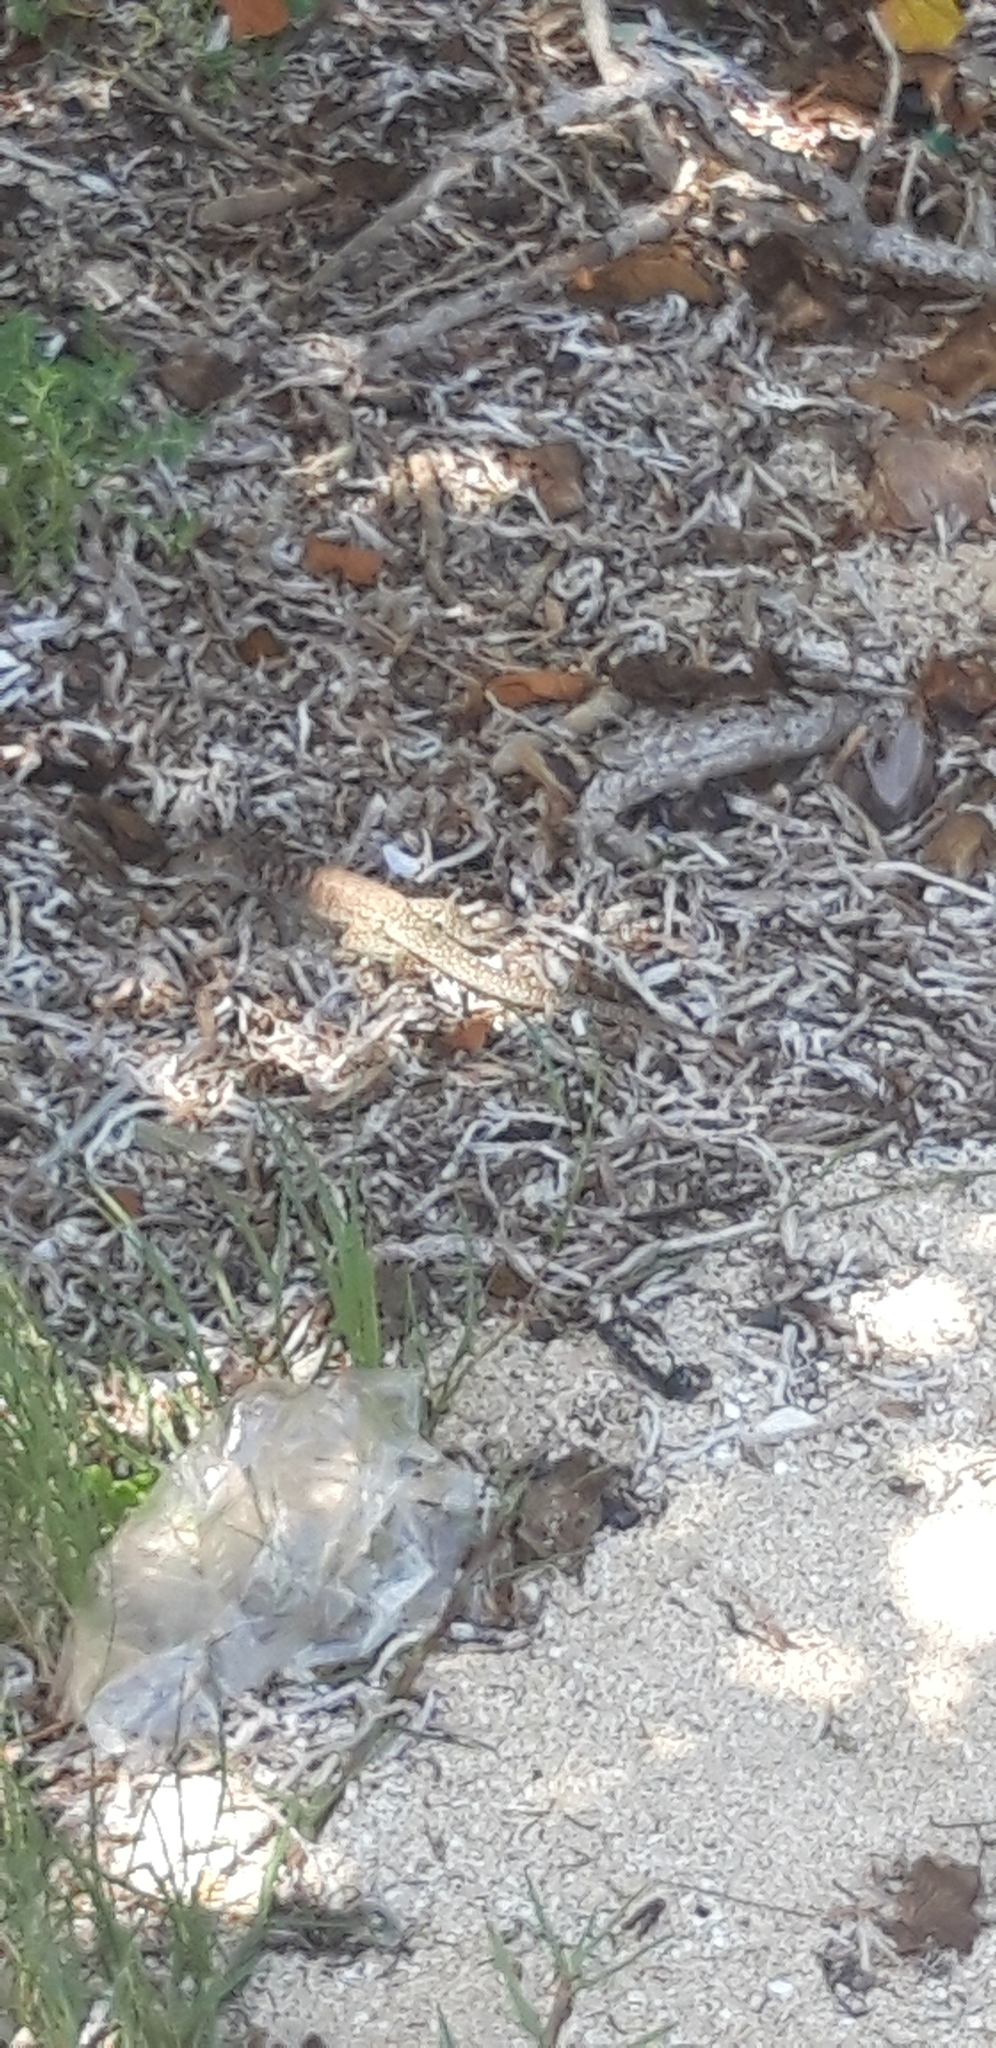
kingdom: Animalia
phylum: Chordata
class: Squamata
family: Teiidae
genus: Pholidoscelis
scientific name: Pholidoscelis plei
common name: Anguilla bank ameiva
